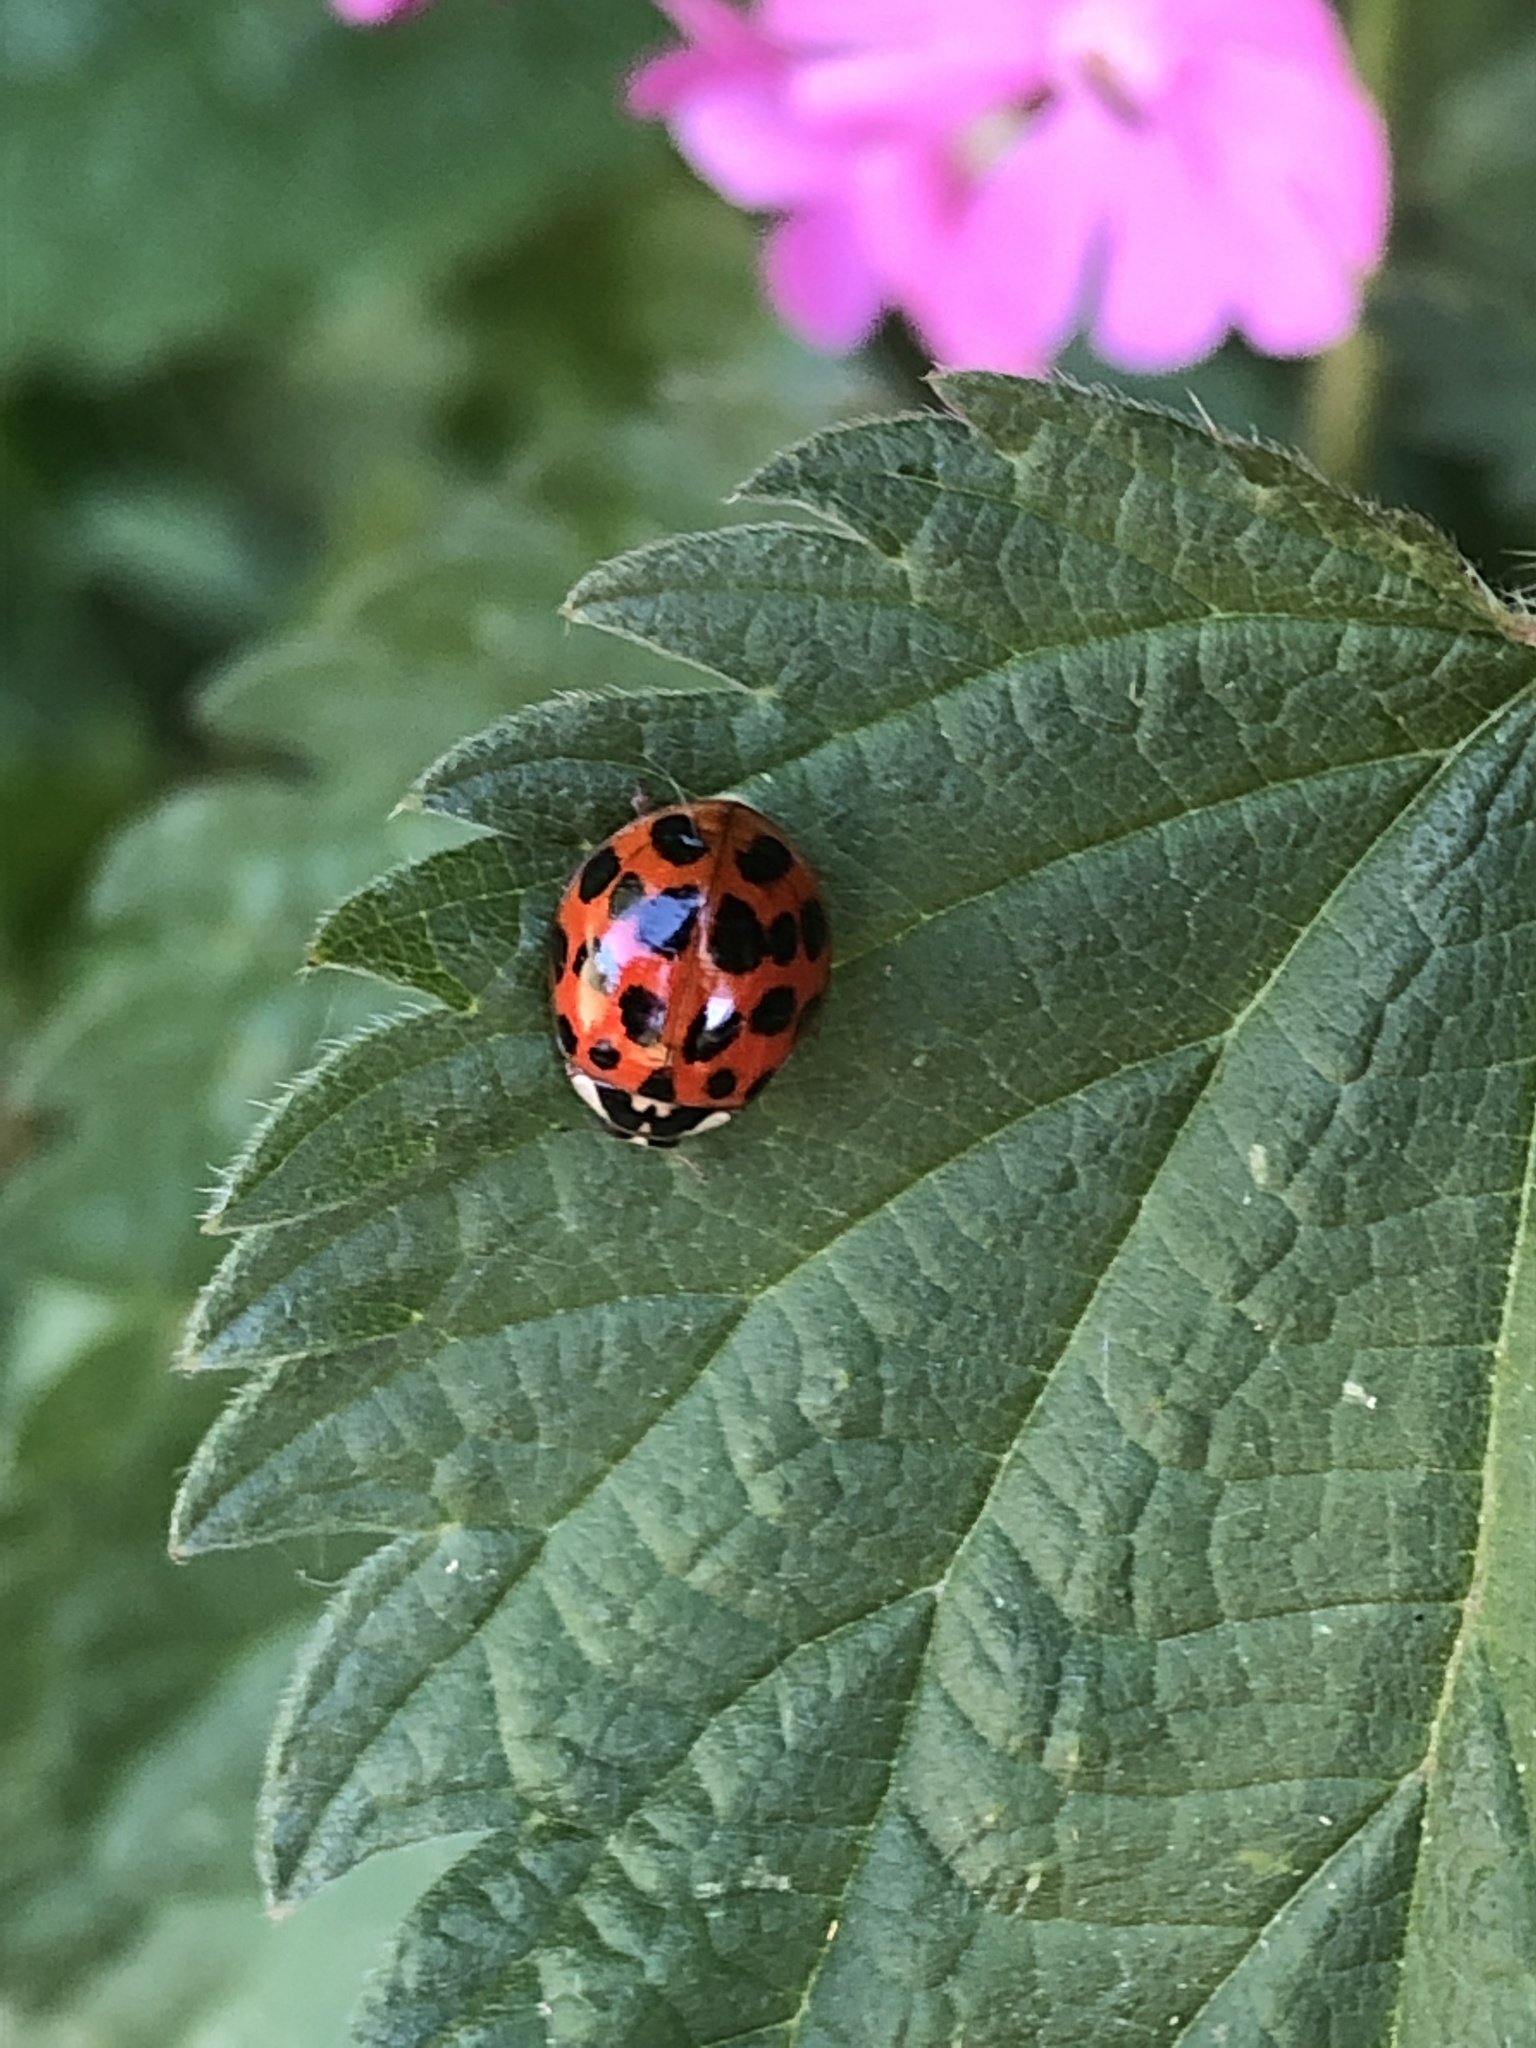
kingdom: Animalia
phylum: Arthropoda
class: Insecta
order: Coleoptera
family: Coccinellidae
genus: Harmonia
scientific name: Harmonia axyridis
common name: Harlequin ladybird
